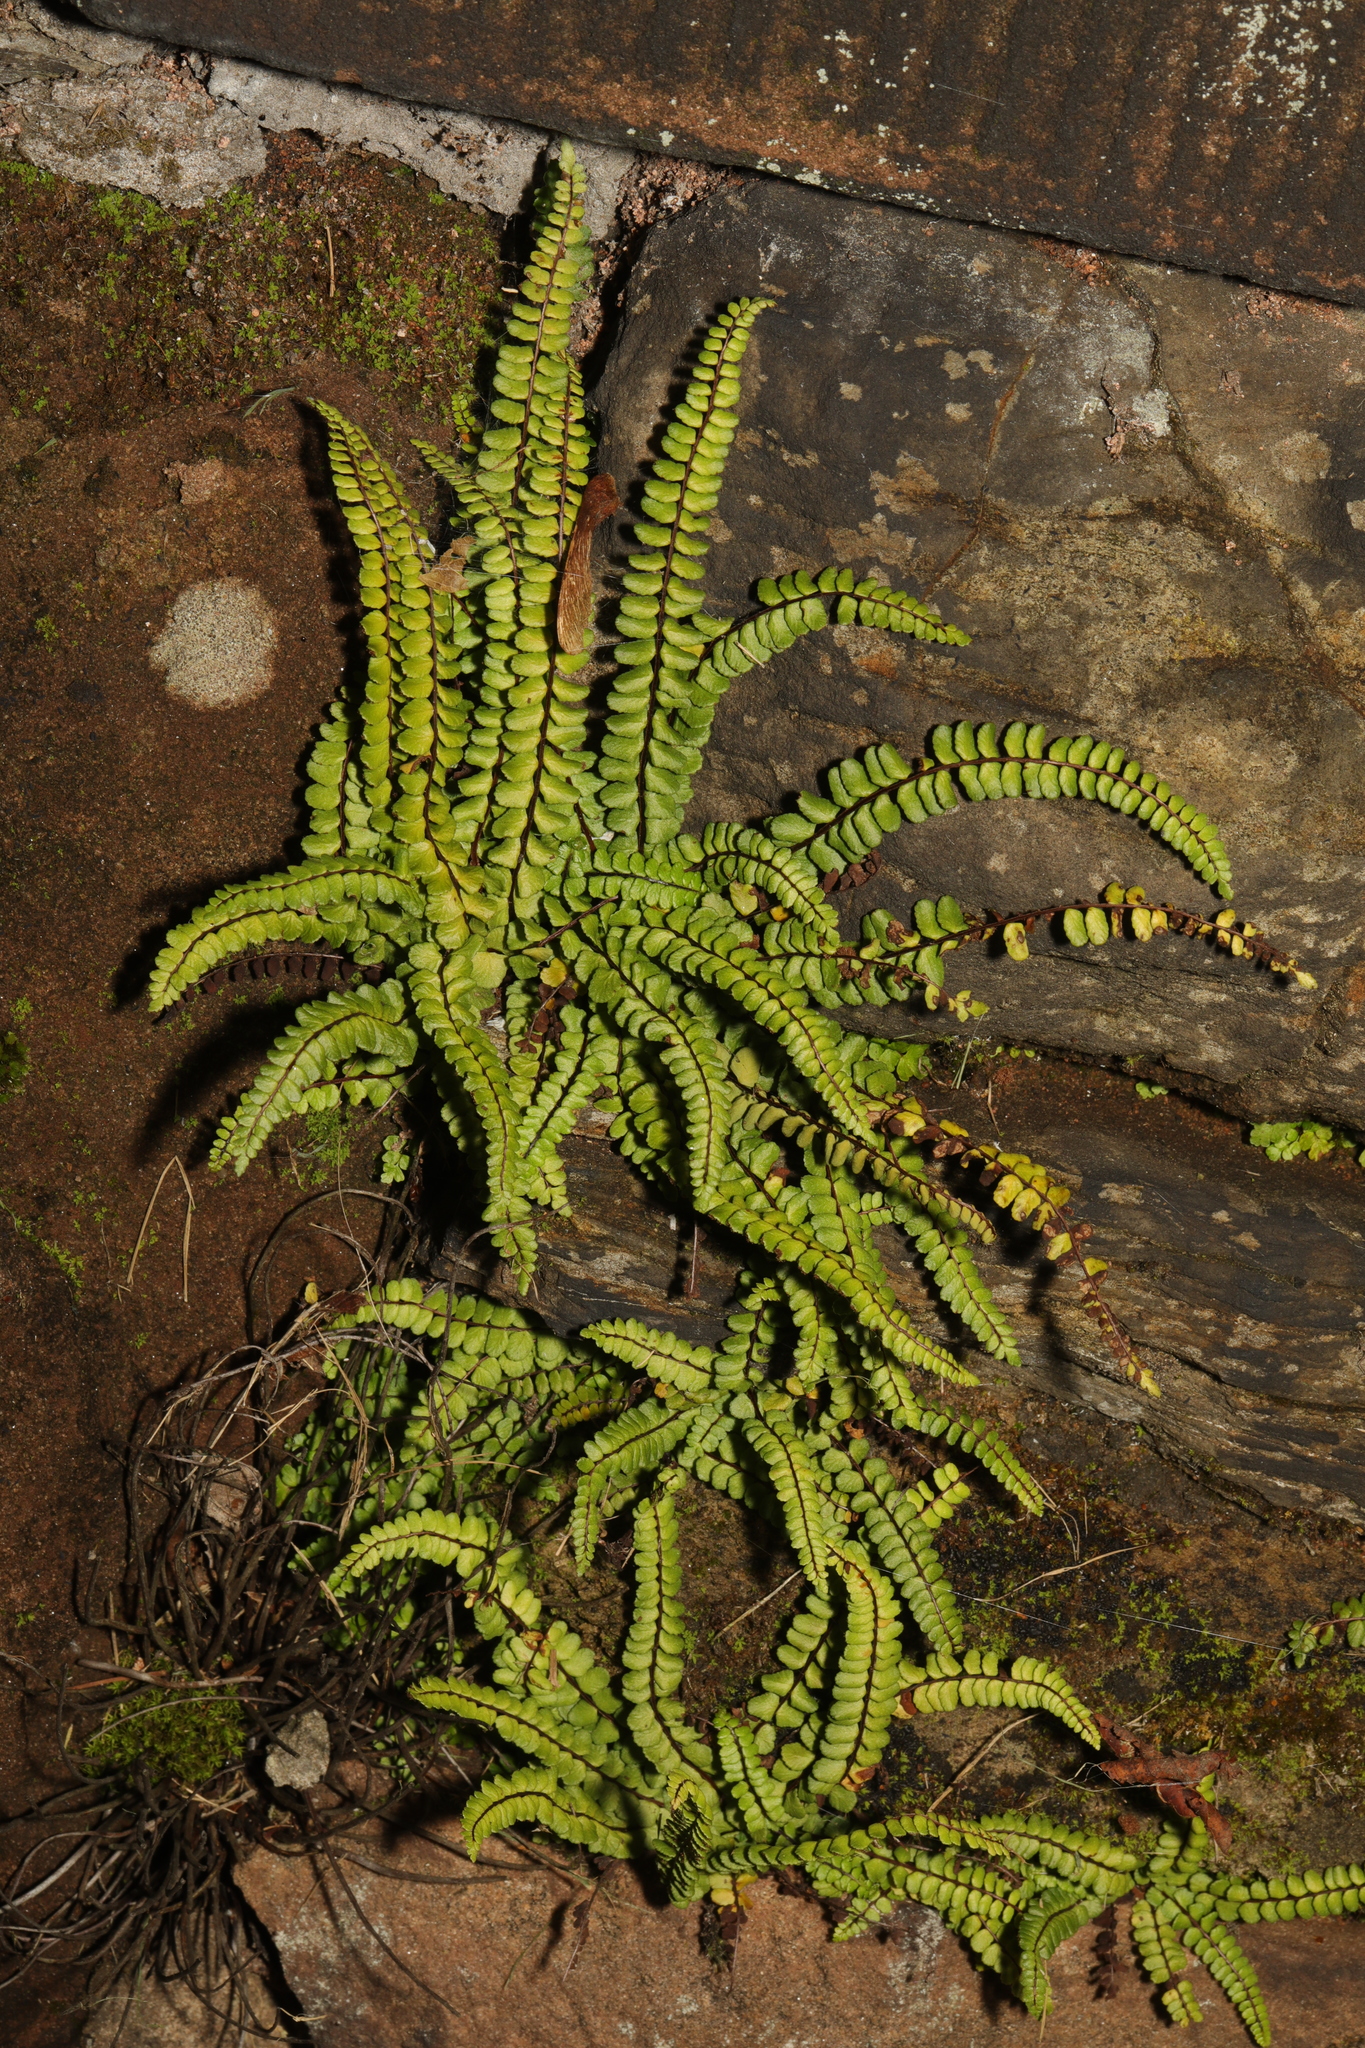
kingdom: Plantae
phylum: Tracheophyta
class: Polypodiopsida
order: Polypodiales
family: Aspleniaceae
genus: Asplenium
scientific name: Asplenium quadrivalens
